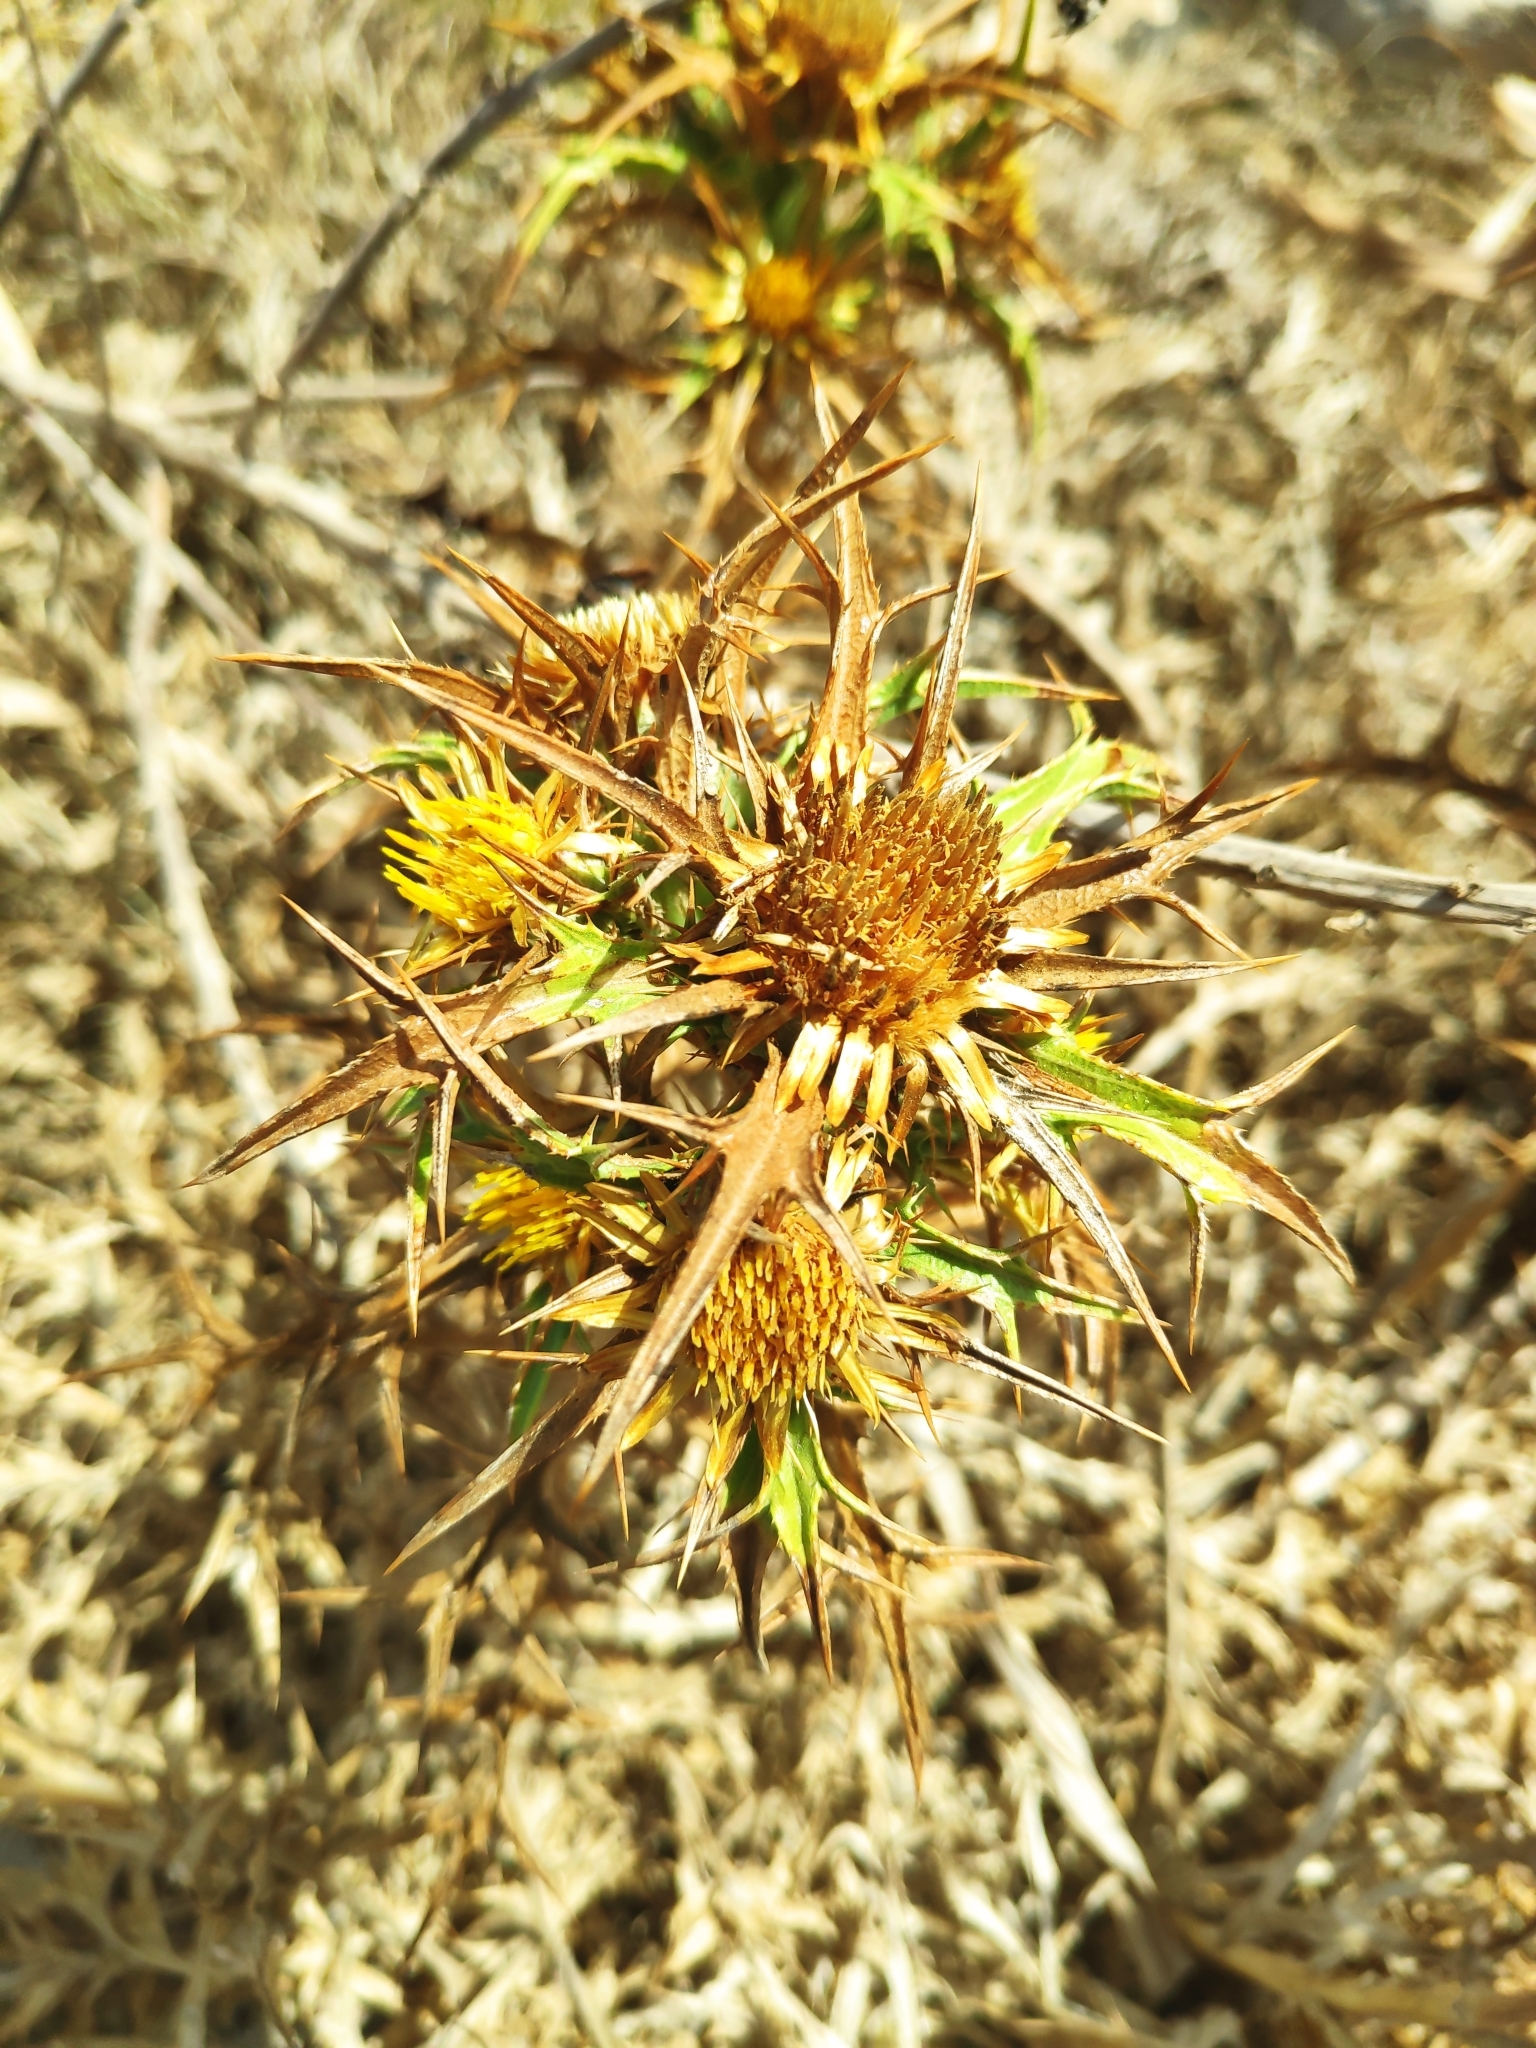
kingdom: Plantae
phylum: Tracheophyta
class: Magnoliopsida
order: Asterales
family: Asteraceae
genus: Carlina
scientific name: Carlina involucrata
